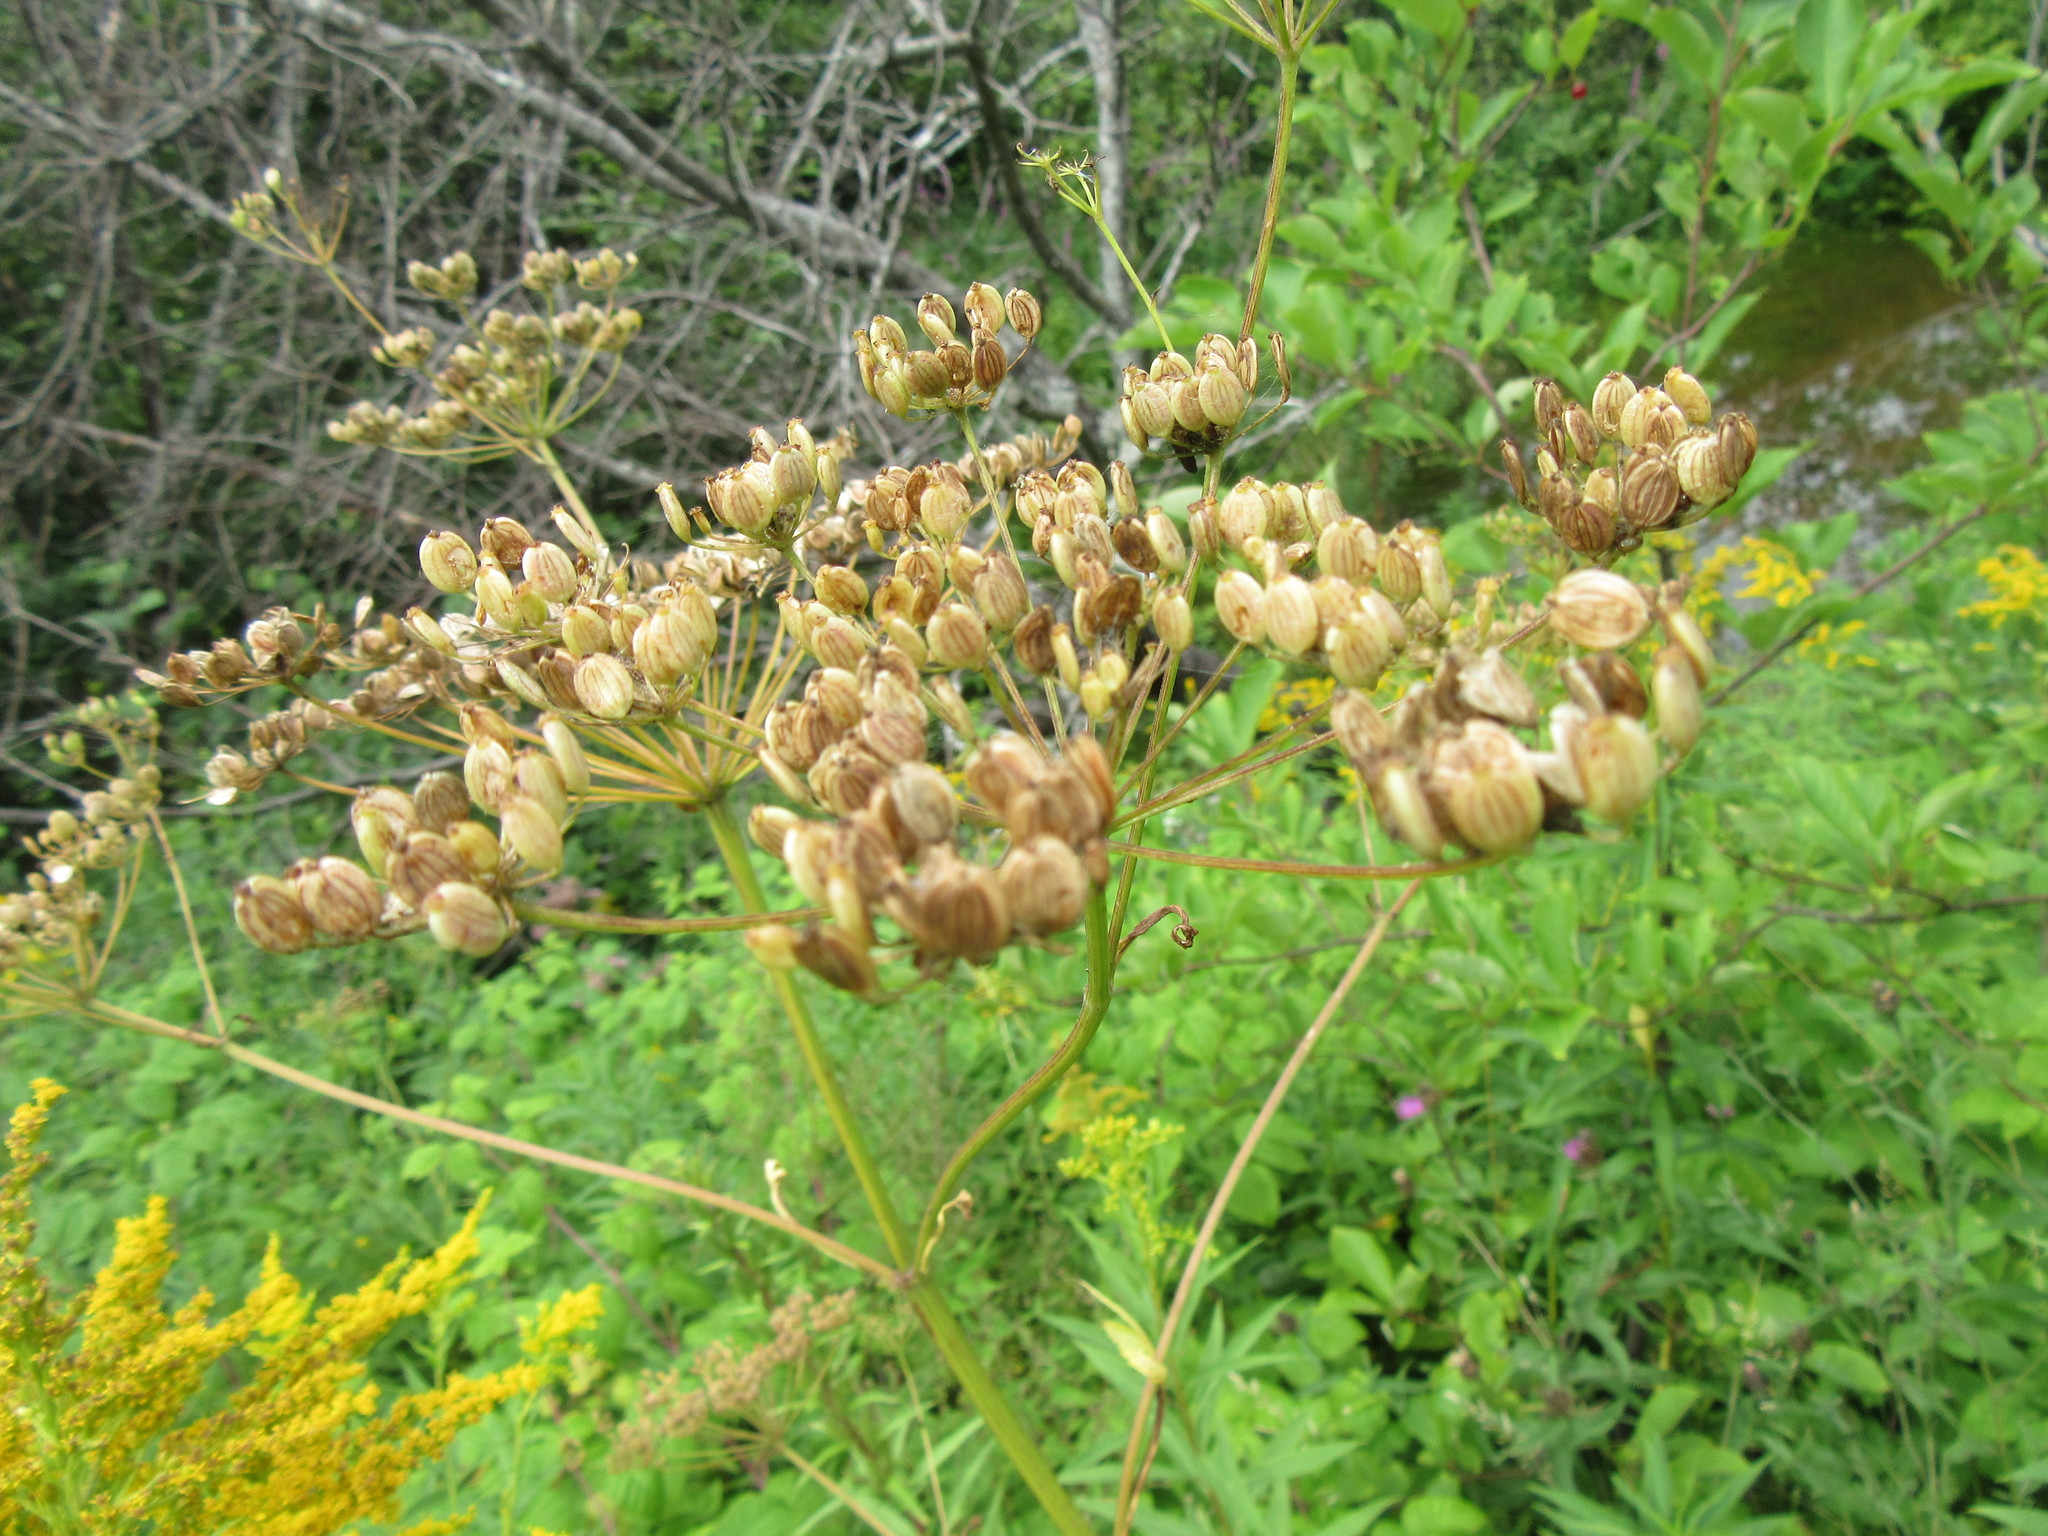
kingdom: Plantae
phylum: Tracheophyta
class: Magnoliopsida
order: Apiales
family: Apiaceae
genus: Pastinaca
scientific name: Pastinaca sativa
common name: Wild parsnip
